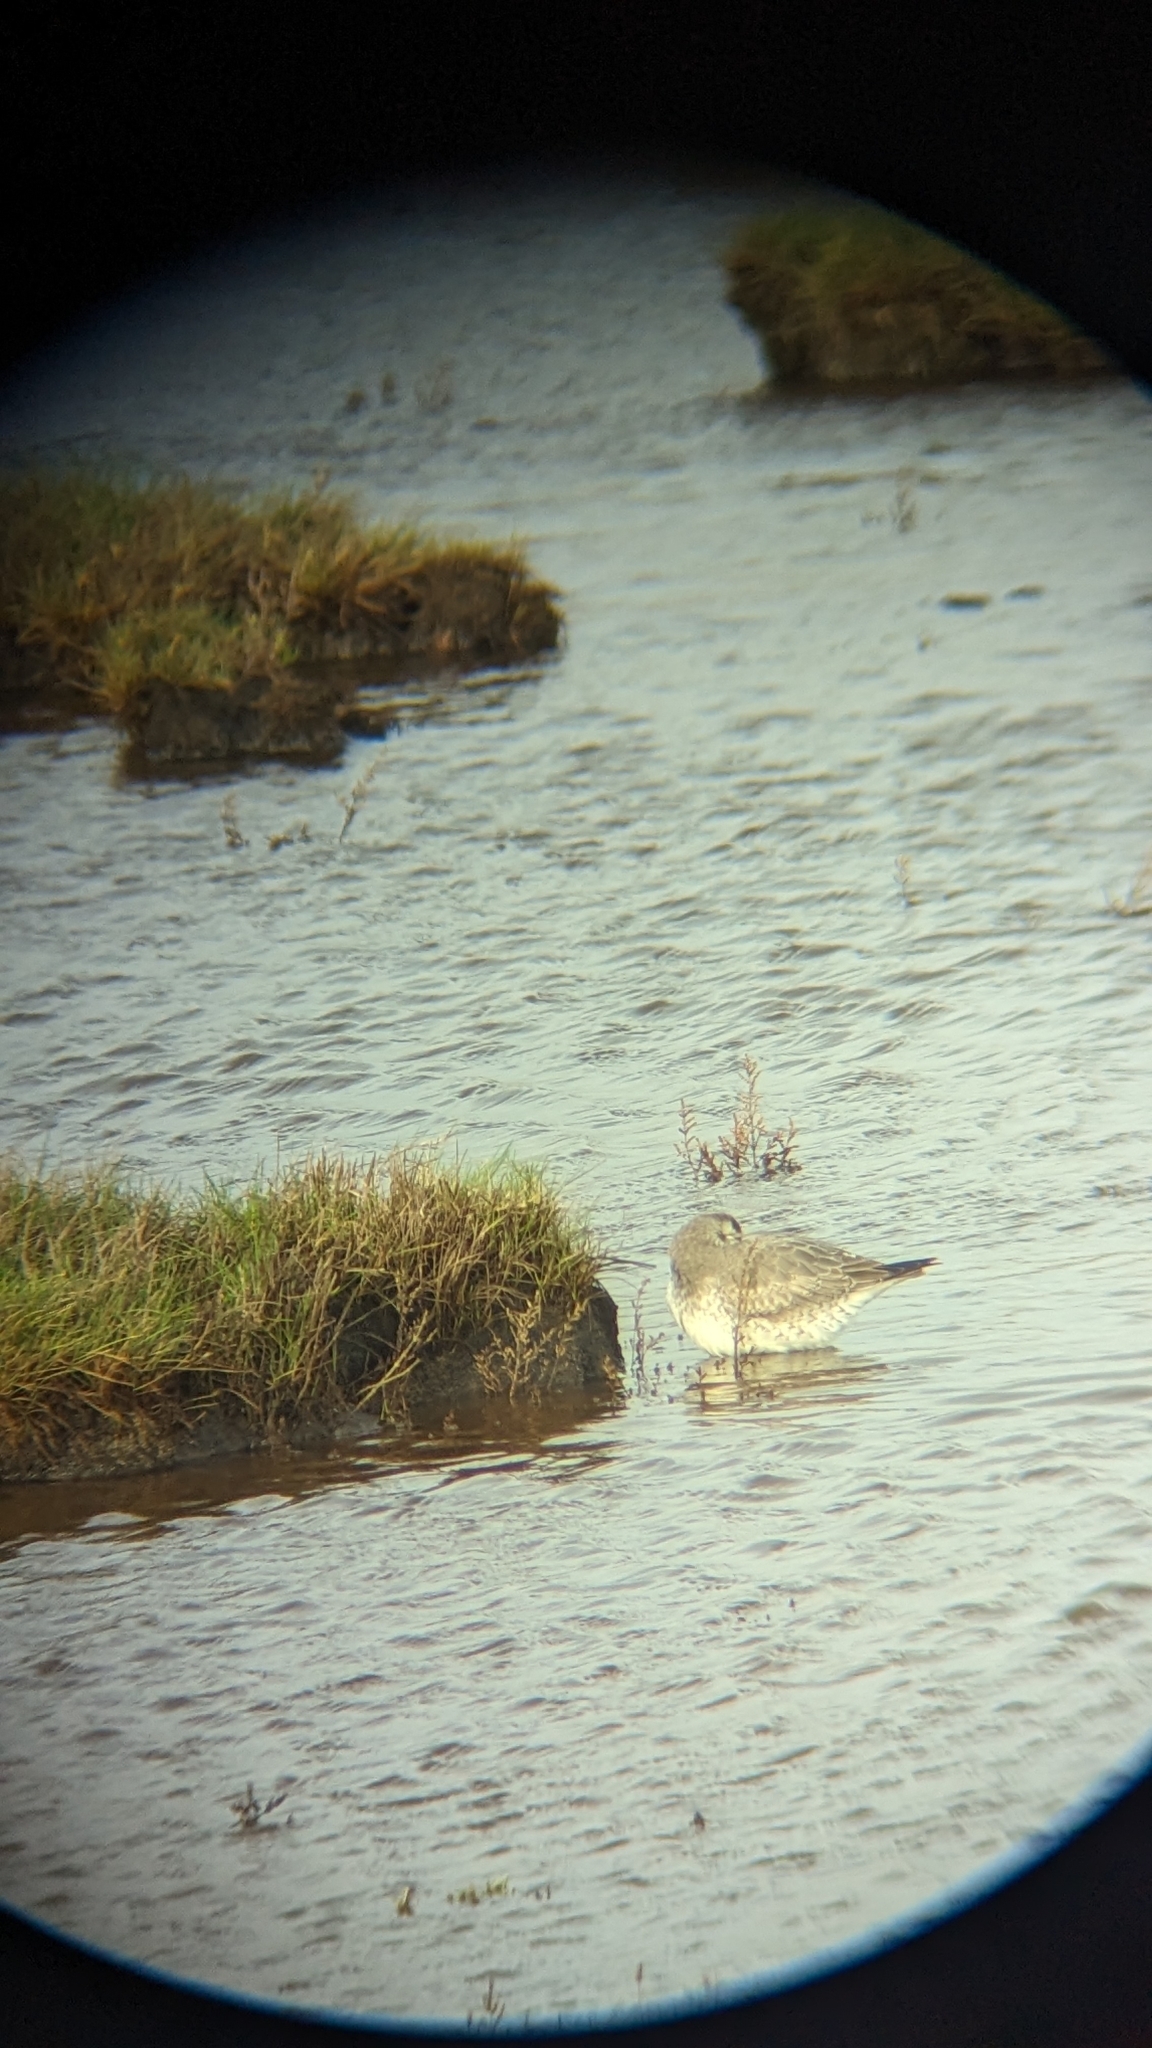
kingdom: Animalia
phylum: Chordata
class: Aves
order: Charadriiformes
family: Scolopacidae
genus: Calidris
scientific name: Calidris canutus
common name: Red knot
